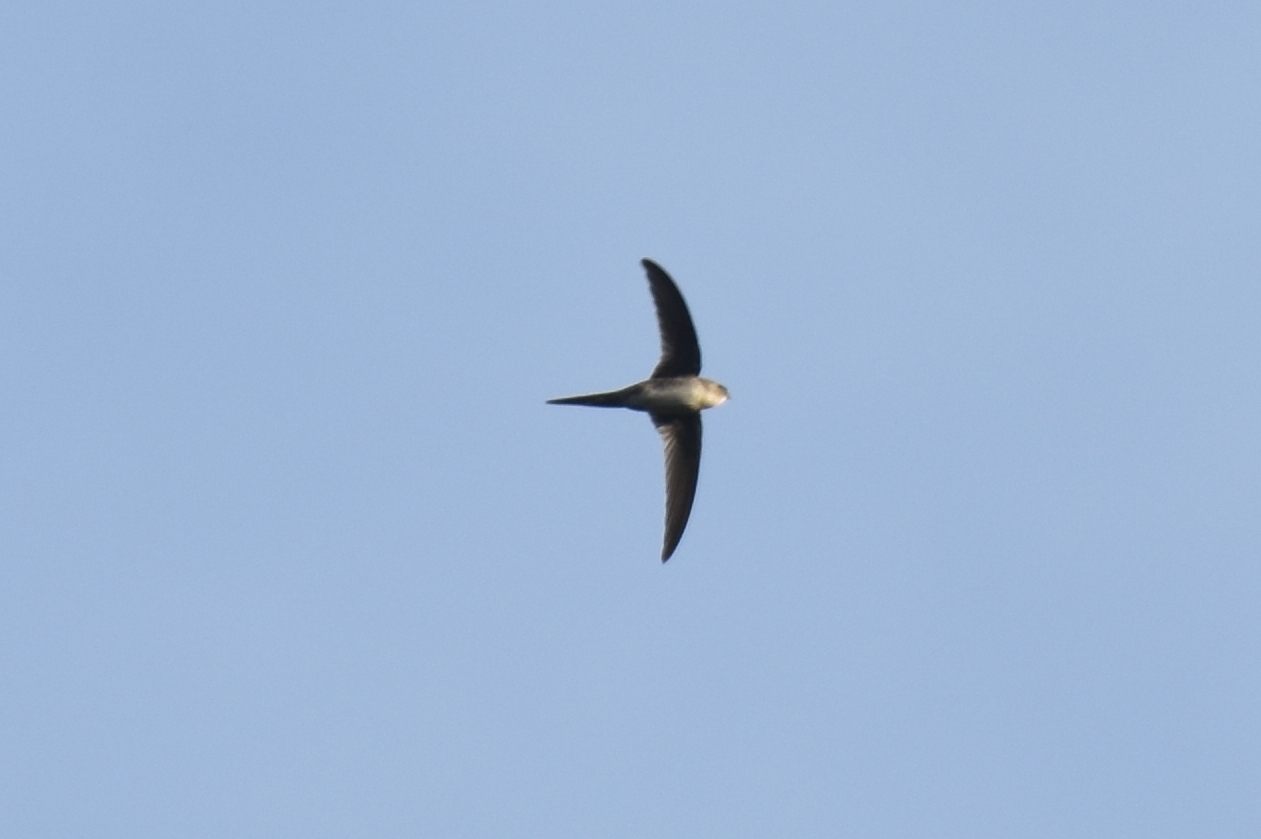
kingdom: Animalia
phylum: Chordata
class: Aves
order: Apodiformes
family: Apodidae
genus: Tachornis
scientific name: Tachornis squamata
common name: Neotropical palm swift
